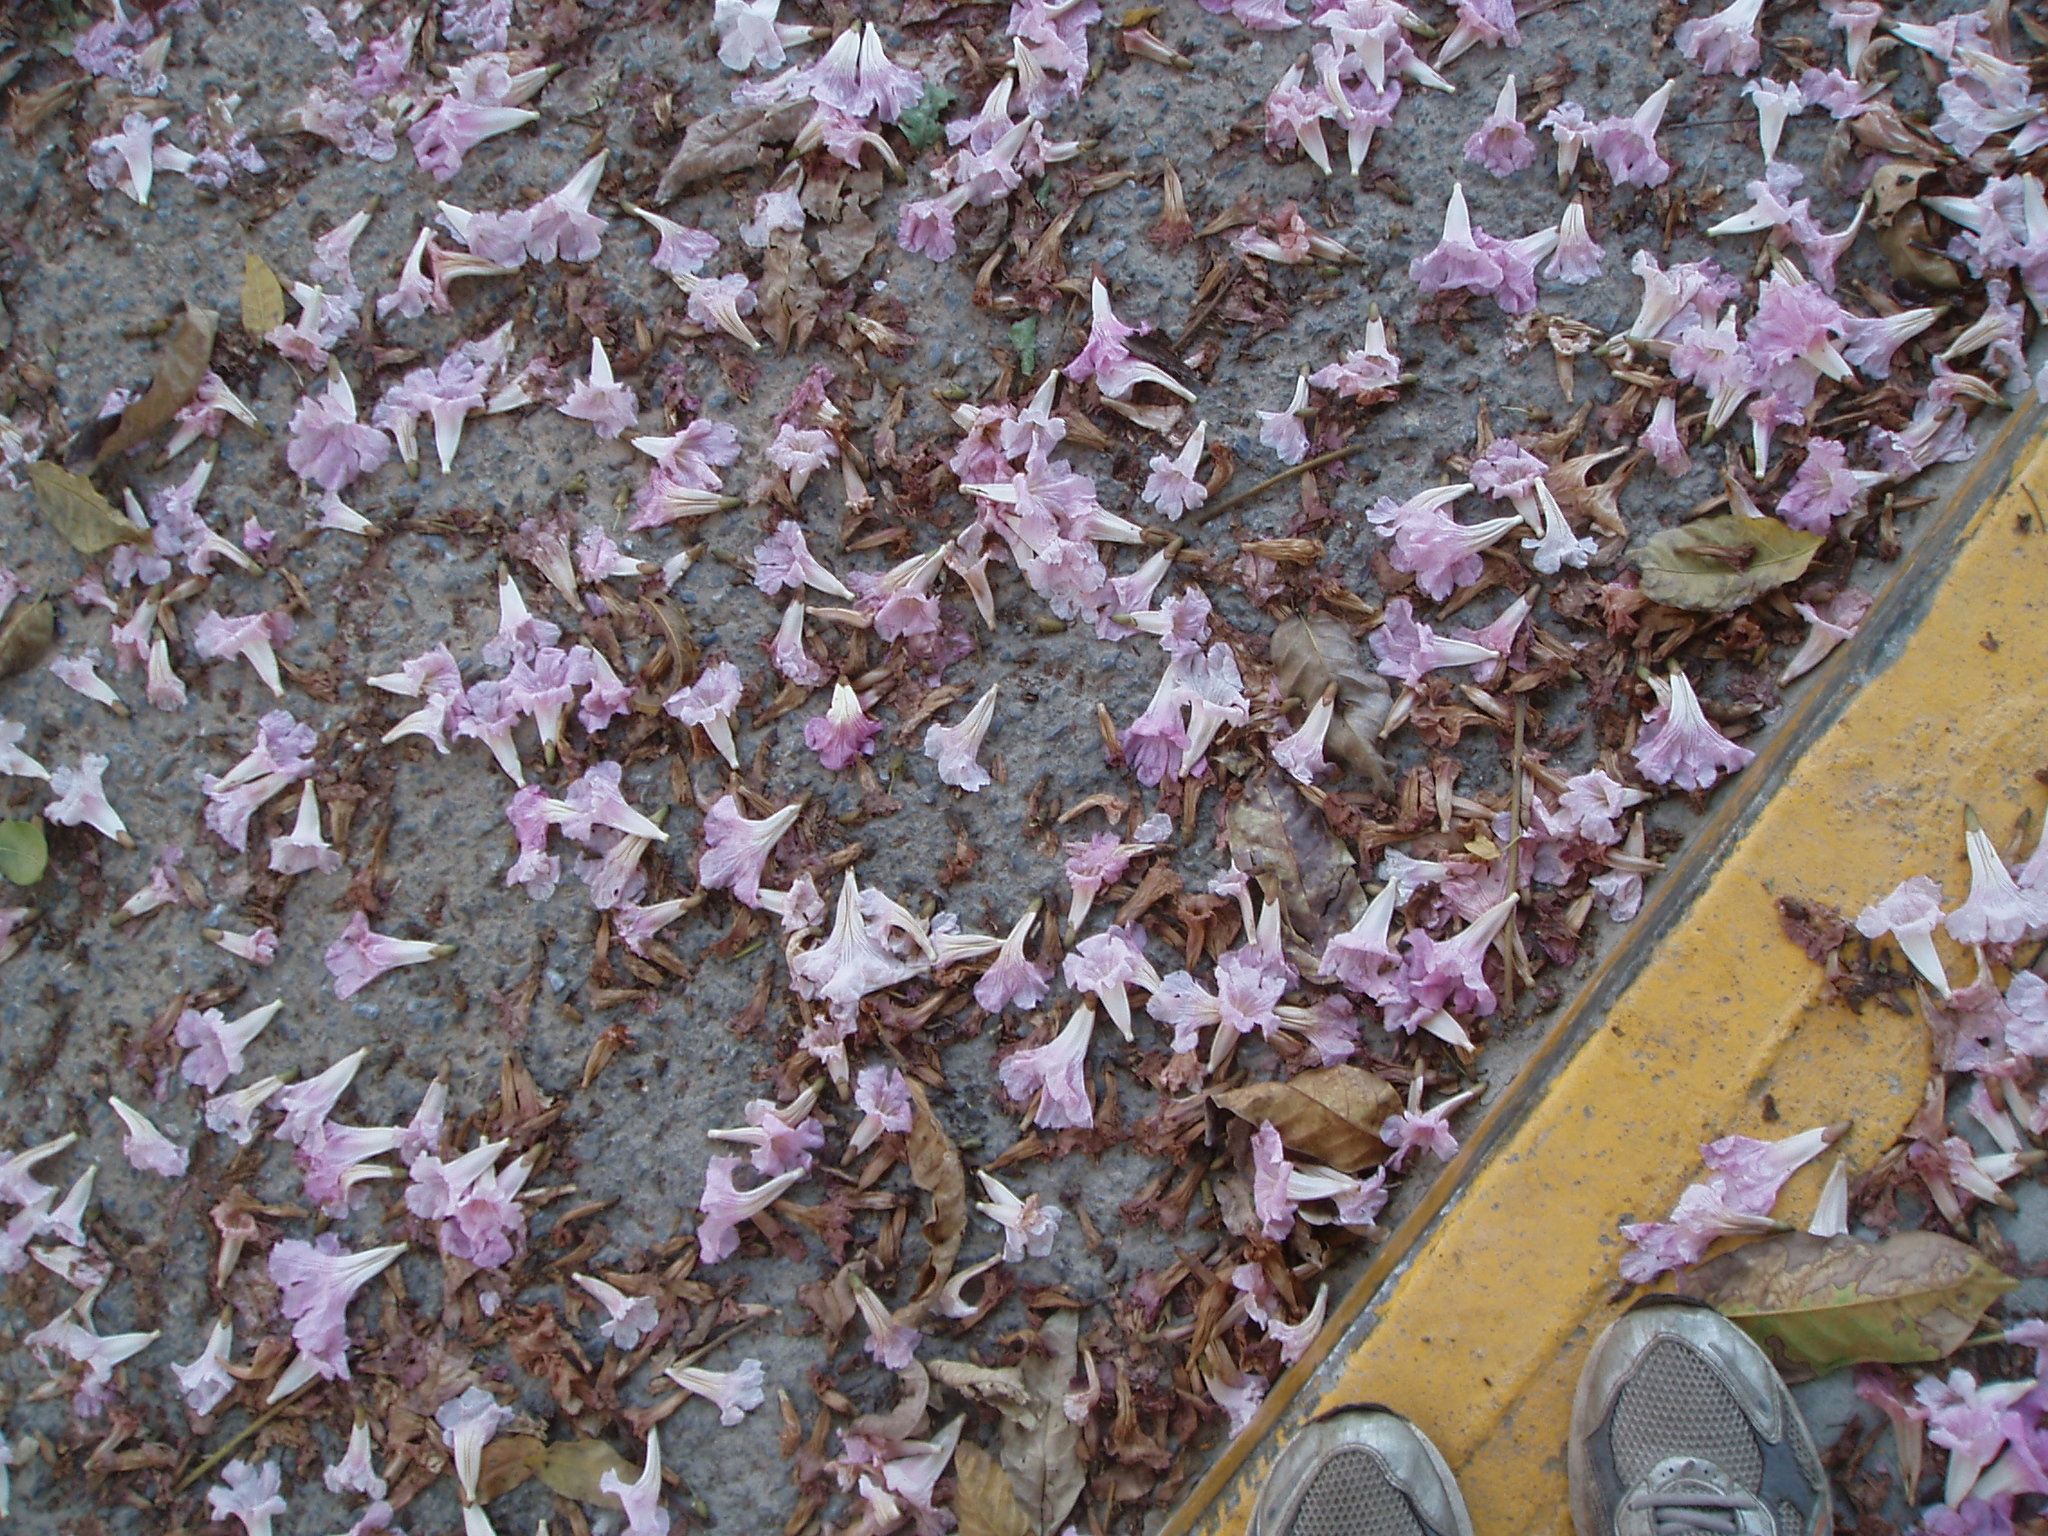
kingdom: Plantae
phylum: Tracheophyta
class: Magnoliopsida
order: Lamiales
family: Bignoniaceae
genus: Tabebuia
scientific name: Tabebuia rosea
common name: Pink poui
